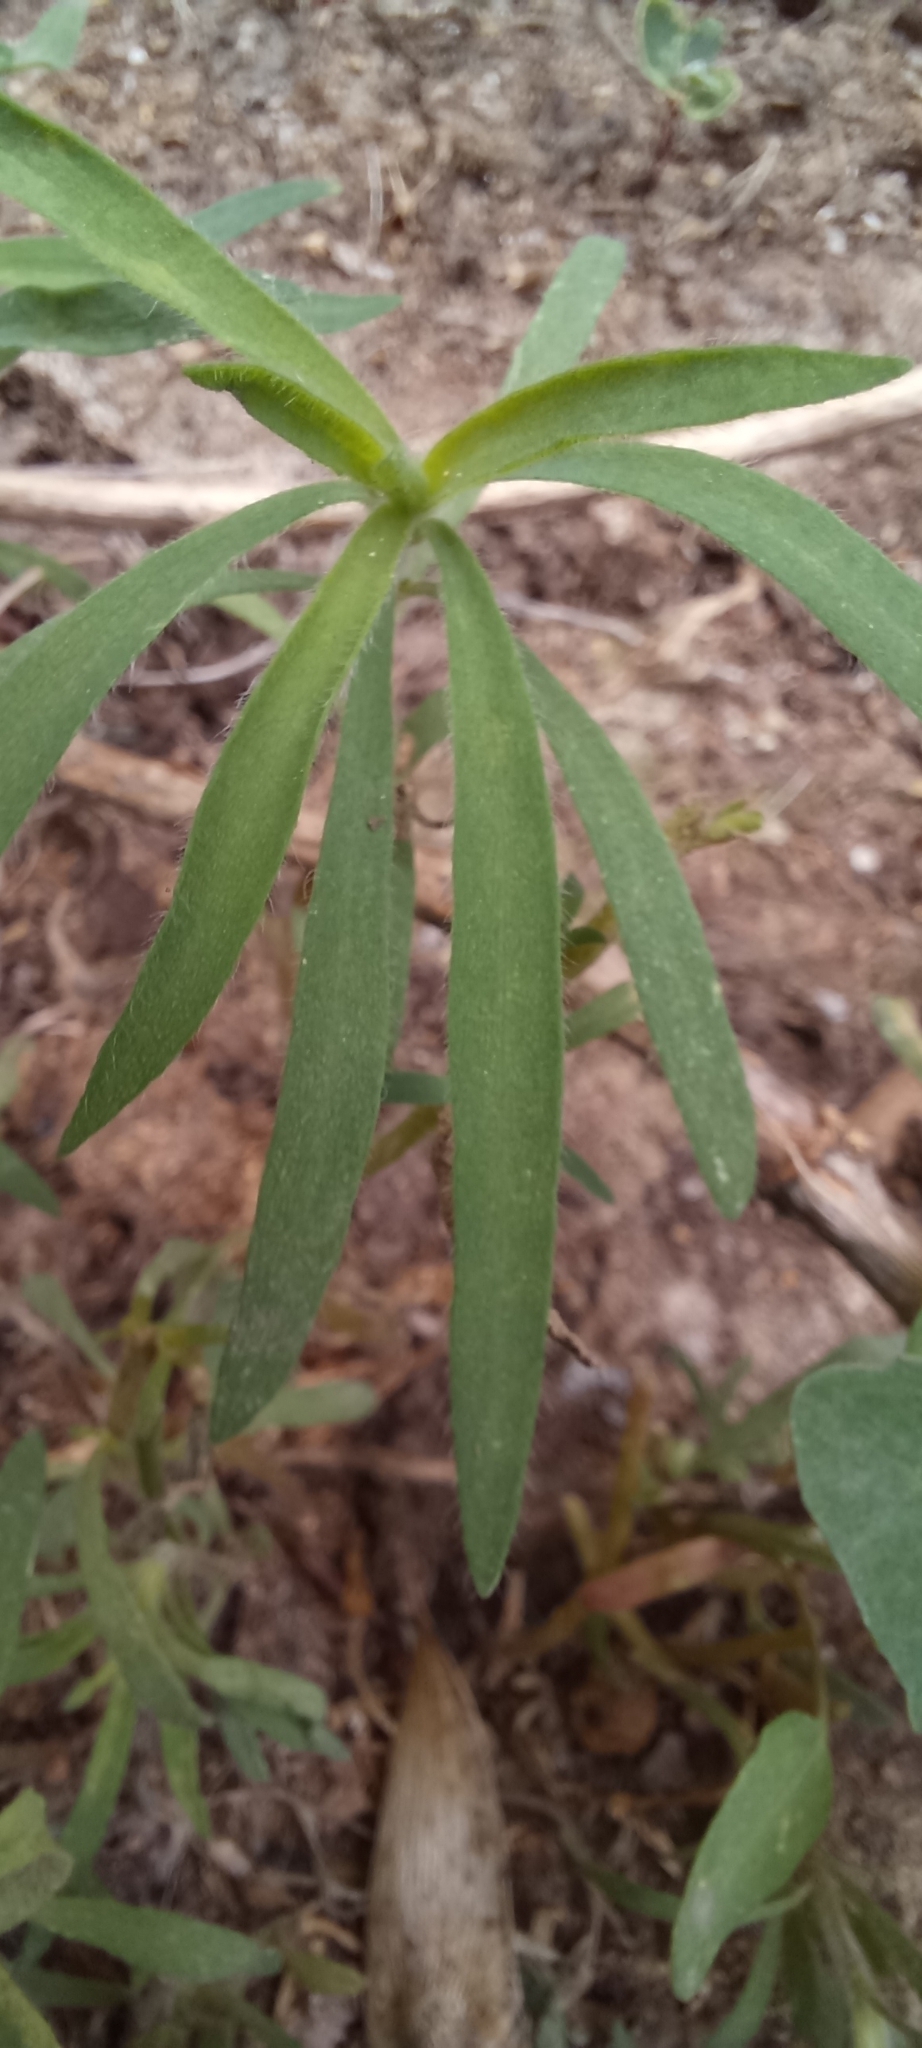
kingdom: Plantae
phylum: Tracheophyta
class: Magnoliopsida
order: Caryophyllales
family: Amaranthaceae
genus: Bassia
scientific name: Bassia scoparia
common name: Belvedere
